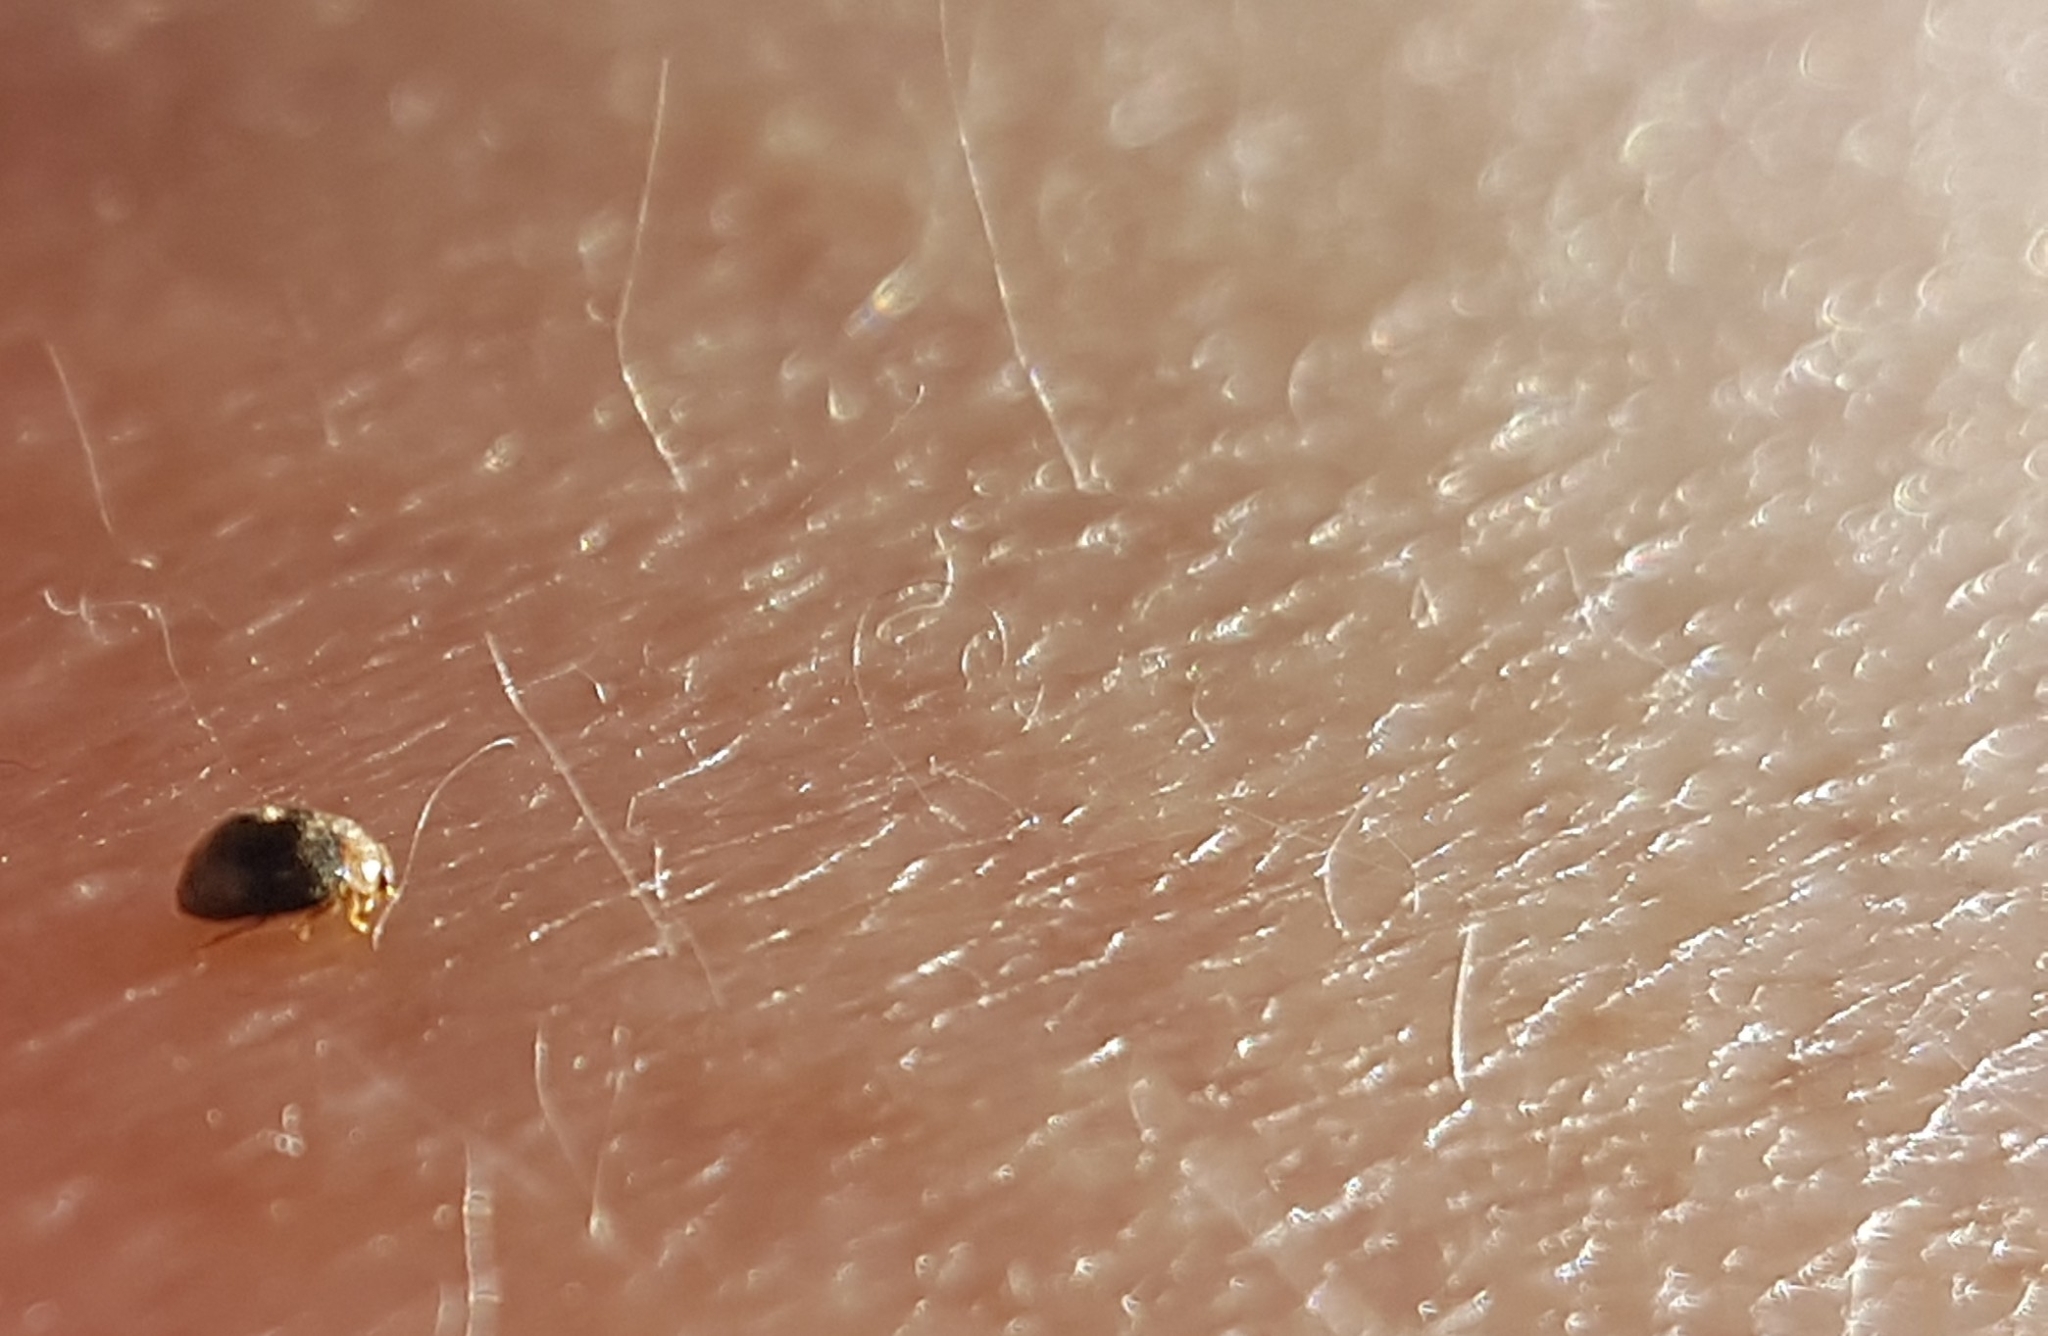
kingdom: Animalia
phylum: Arthropoda
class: Insecta
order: Coleoptera
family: Coccinellidae
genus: Cryptolaemus
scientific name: Cryptolaemus montrouzieri
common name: Mealybug destroyer
